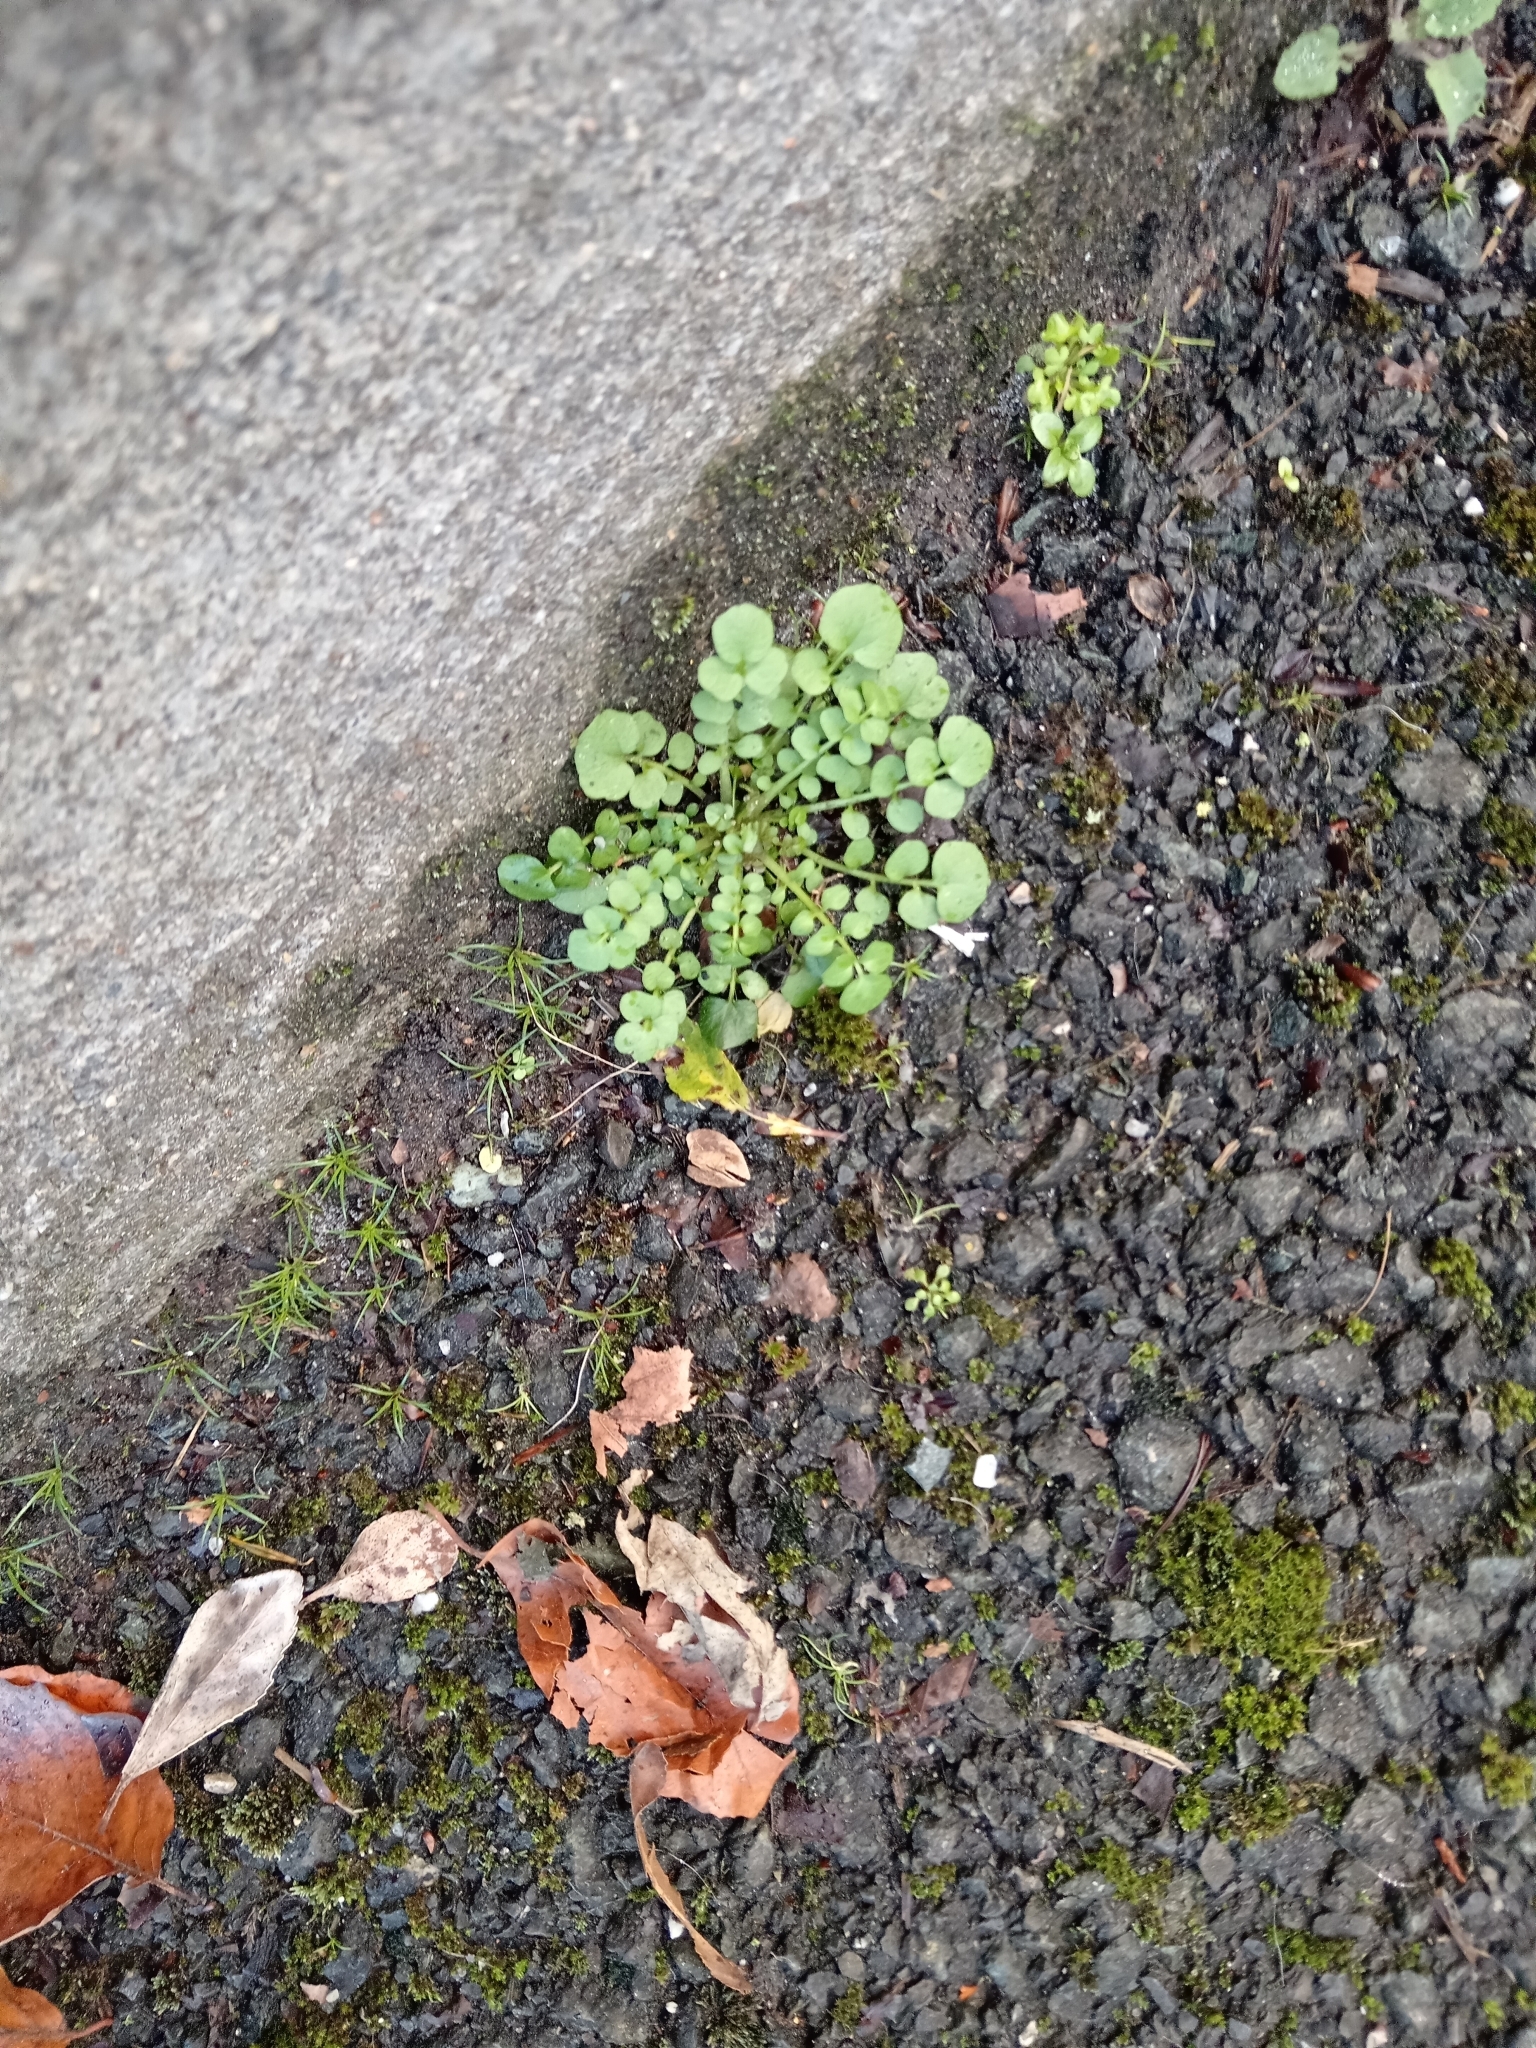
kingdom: Plantae
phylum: Tracheophyta
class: Magnoliopsida
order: Brassicales
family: Brassicaceae
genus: Cardamine
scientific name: Cardamine hirsuta
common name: Hairy bittercress
